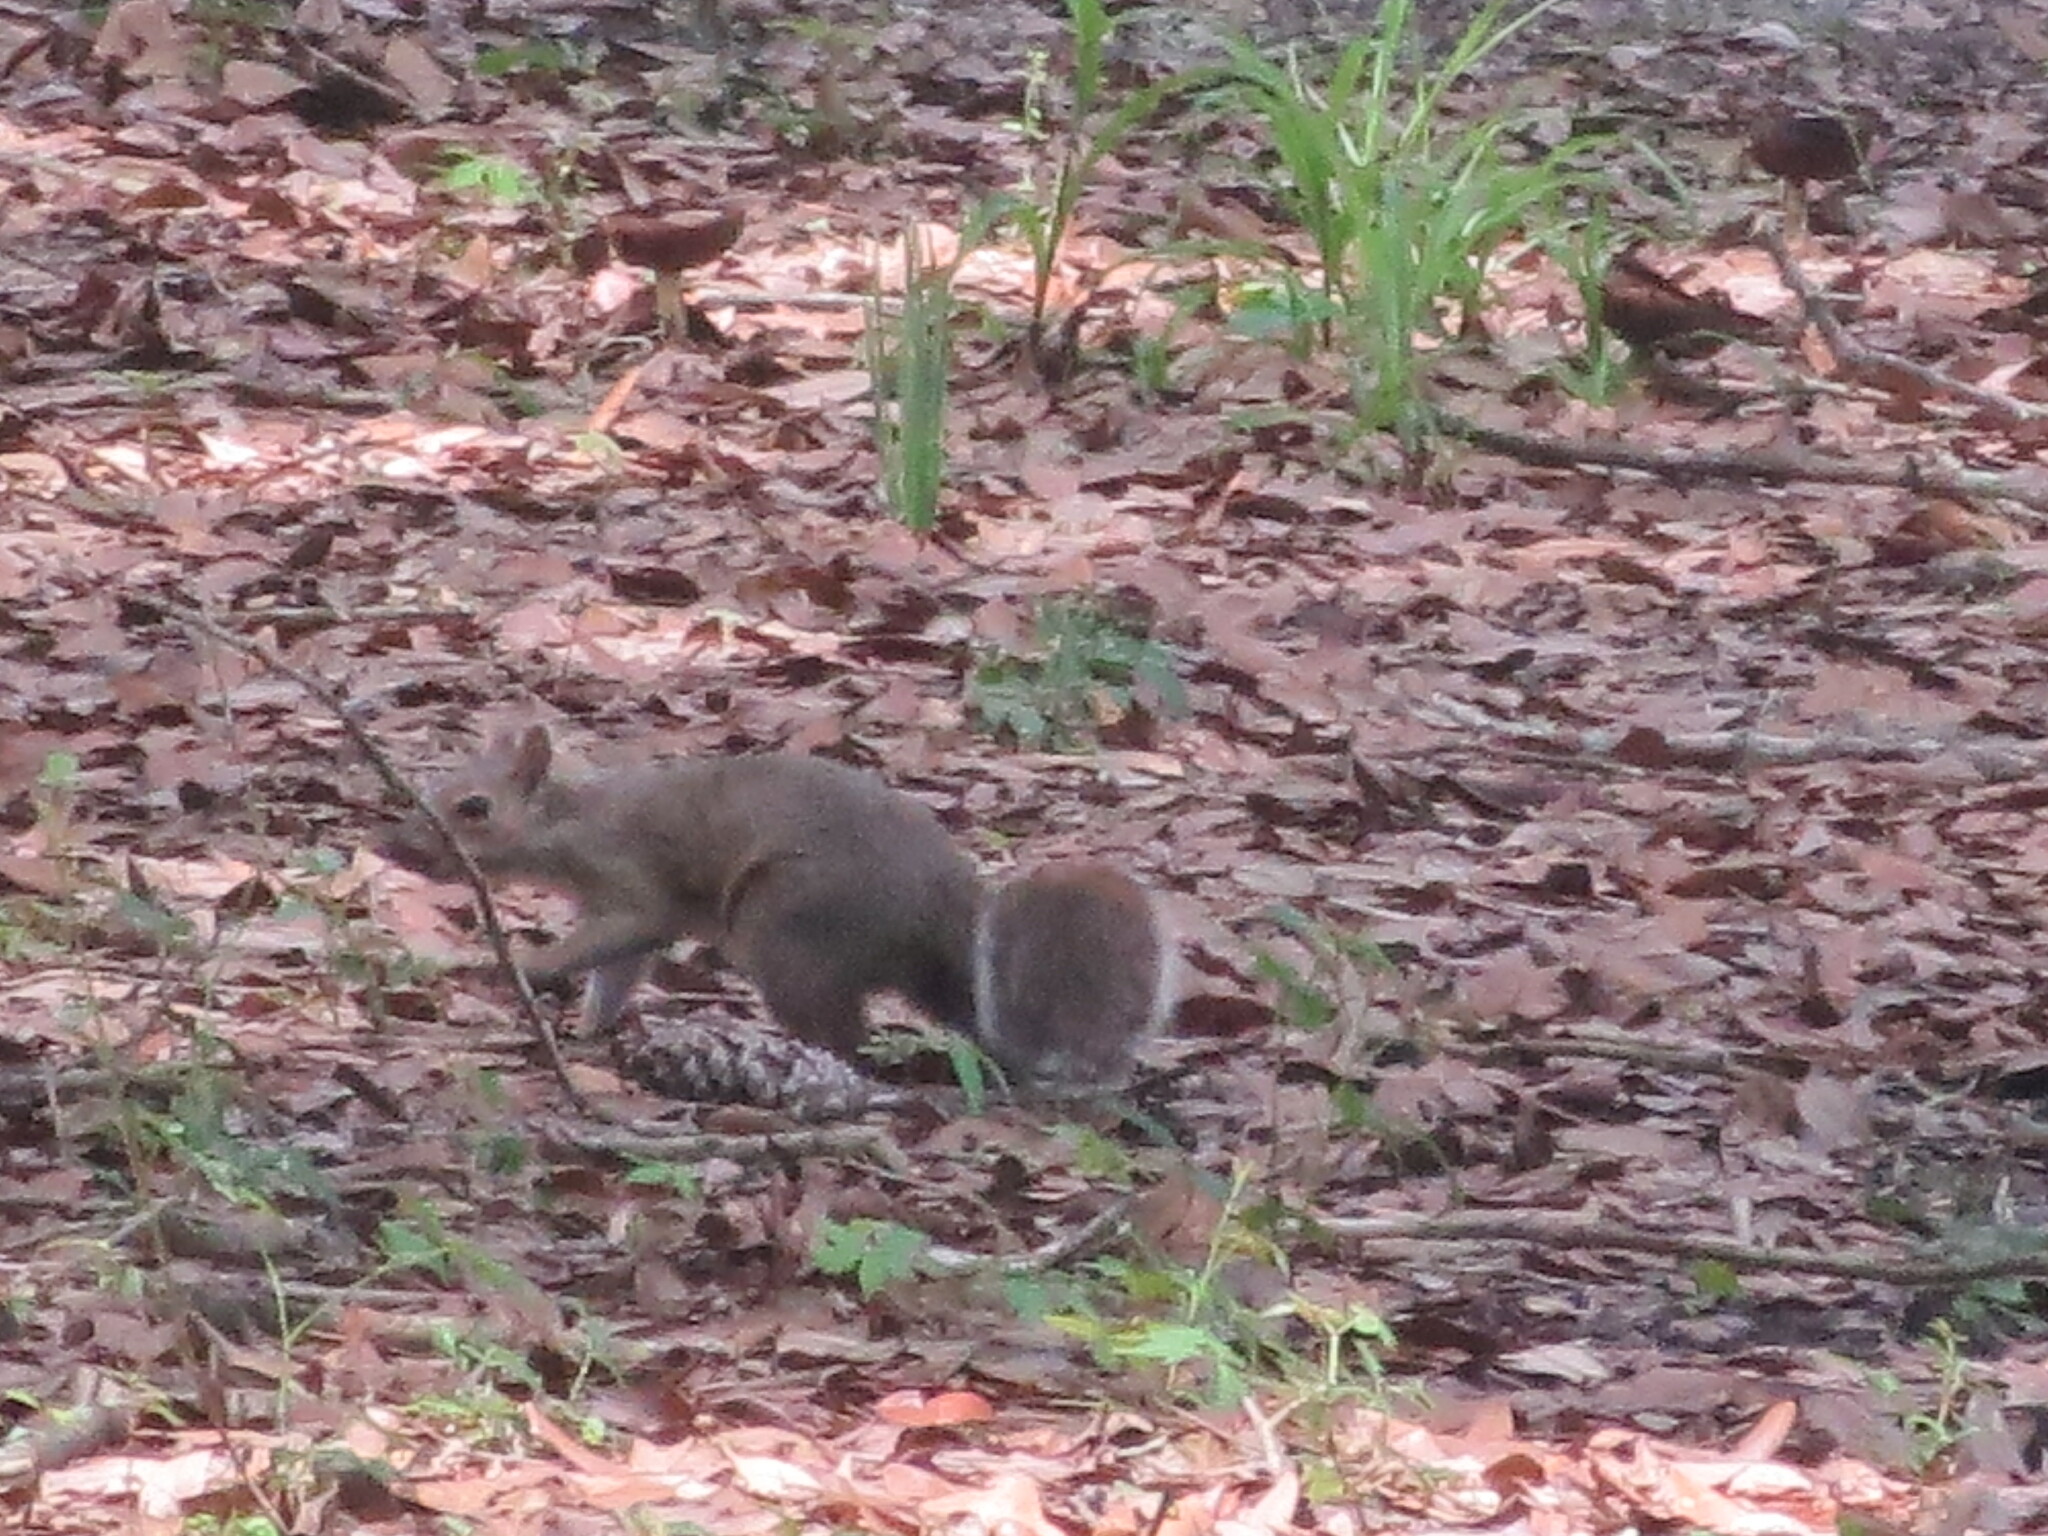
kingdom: Animalia
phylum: Chordata
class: Mammalia
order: Rodentia
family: Sciuridae
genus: Sciurus
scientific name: Sciurus carolinensis
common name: Eastern gray squirrel
